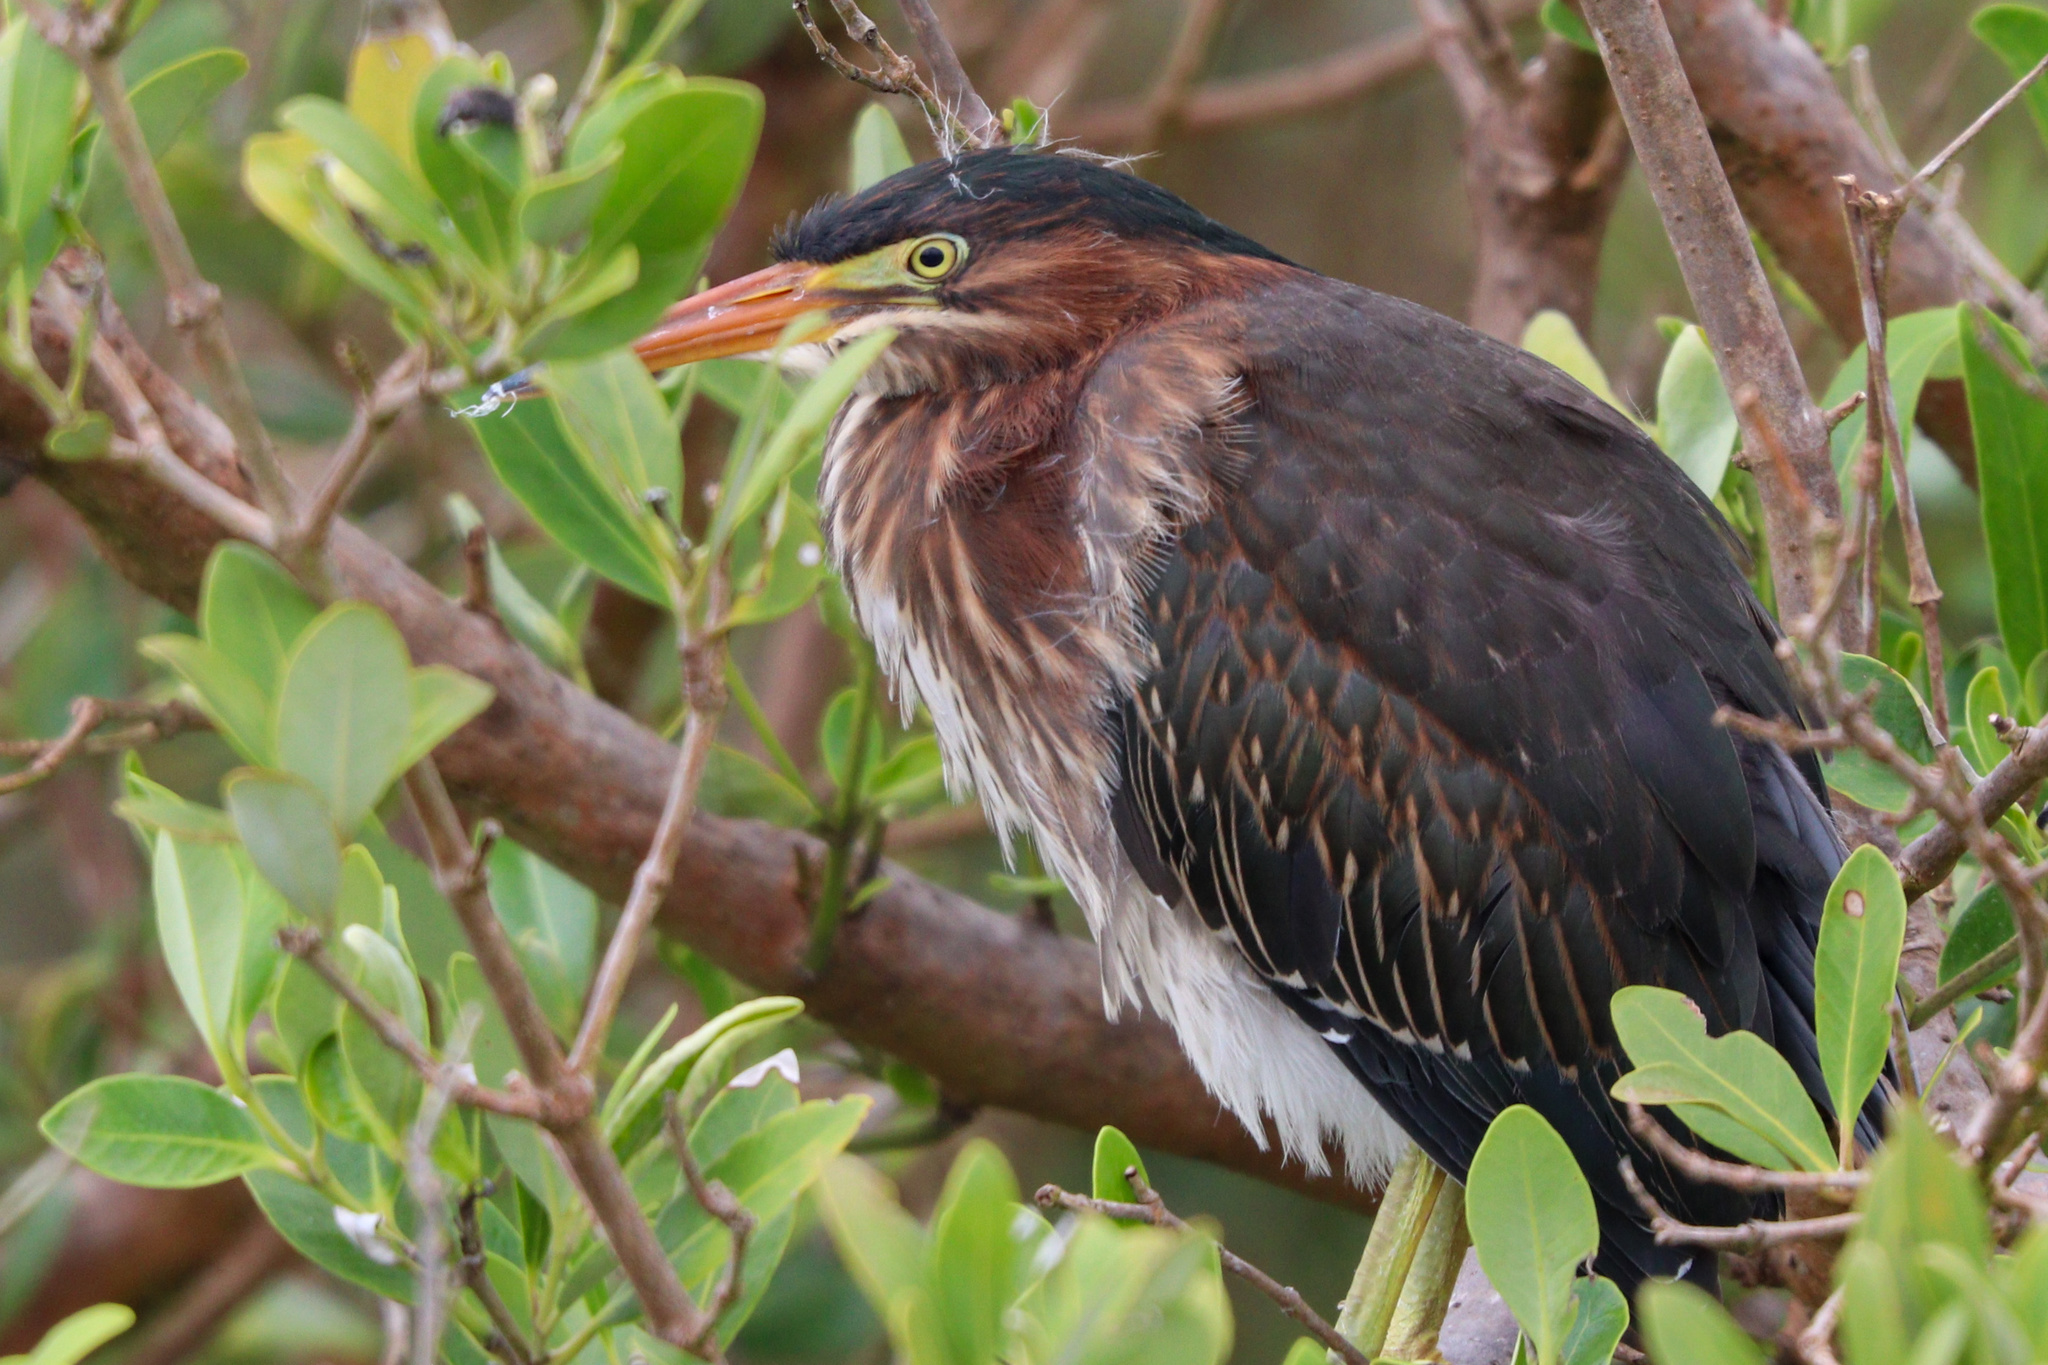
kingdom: Animalia
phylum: Chordata
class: Aves
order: Pelecaniformes
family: Ardeidae
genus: Butorides
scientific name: Butorides virescens
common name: Green heron
